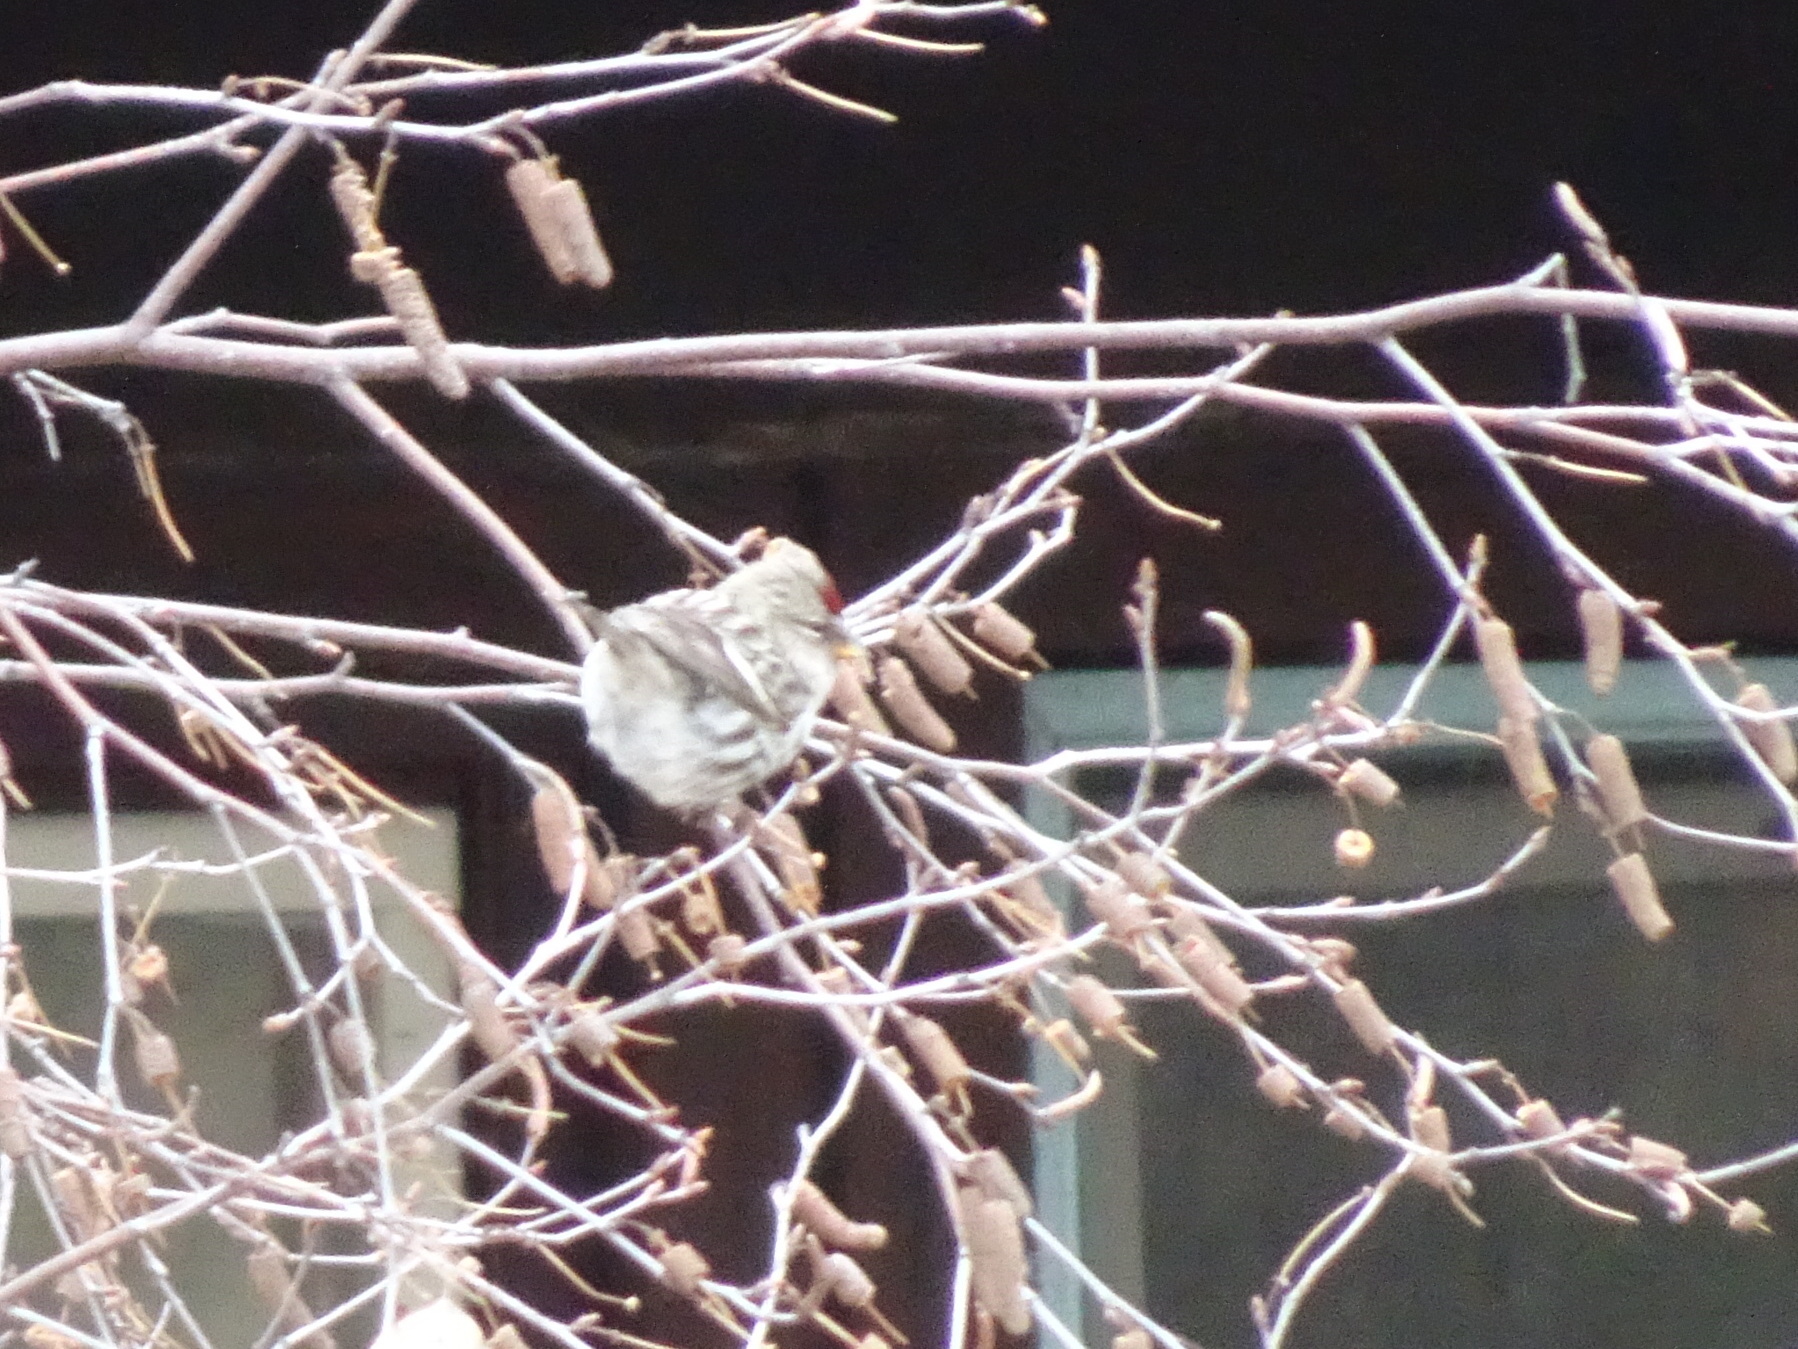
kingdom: Animalia
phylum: Chordata
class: Aves
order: Passeriformes
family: Fringillidae
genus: Acanthis
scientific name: Acanthis flammea
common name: Common redpoll
